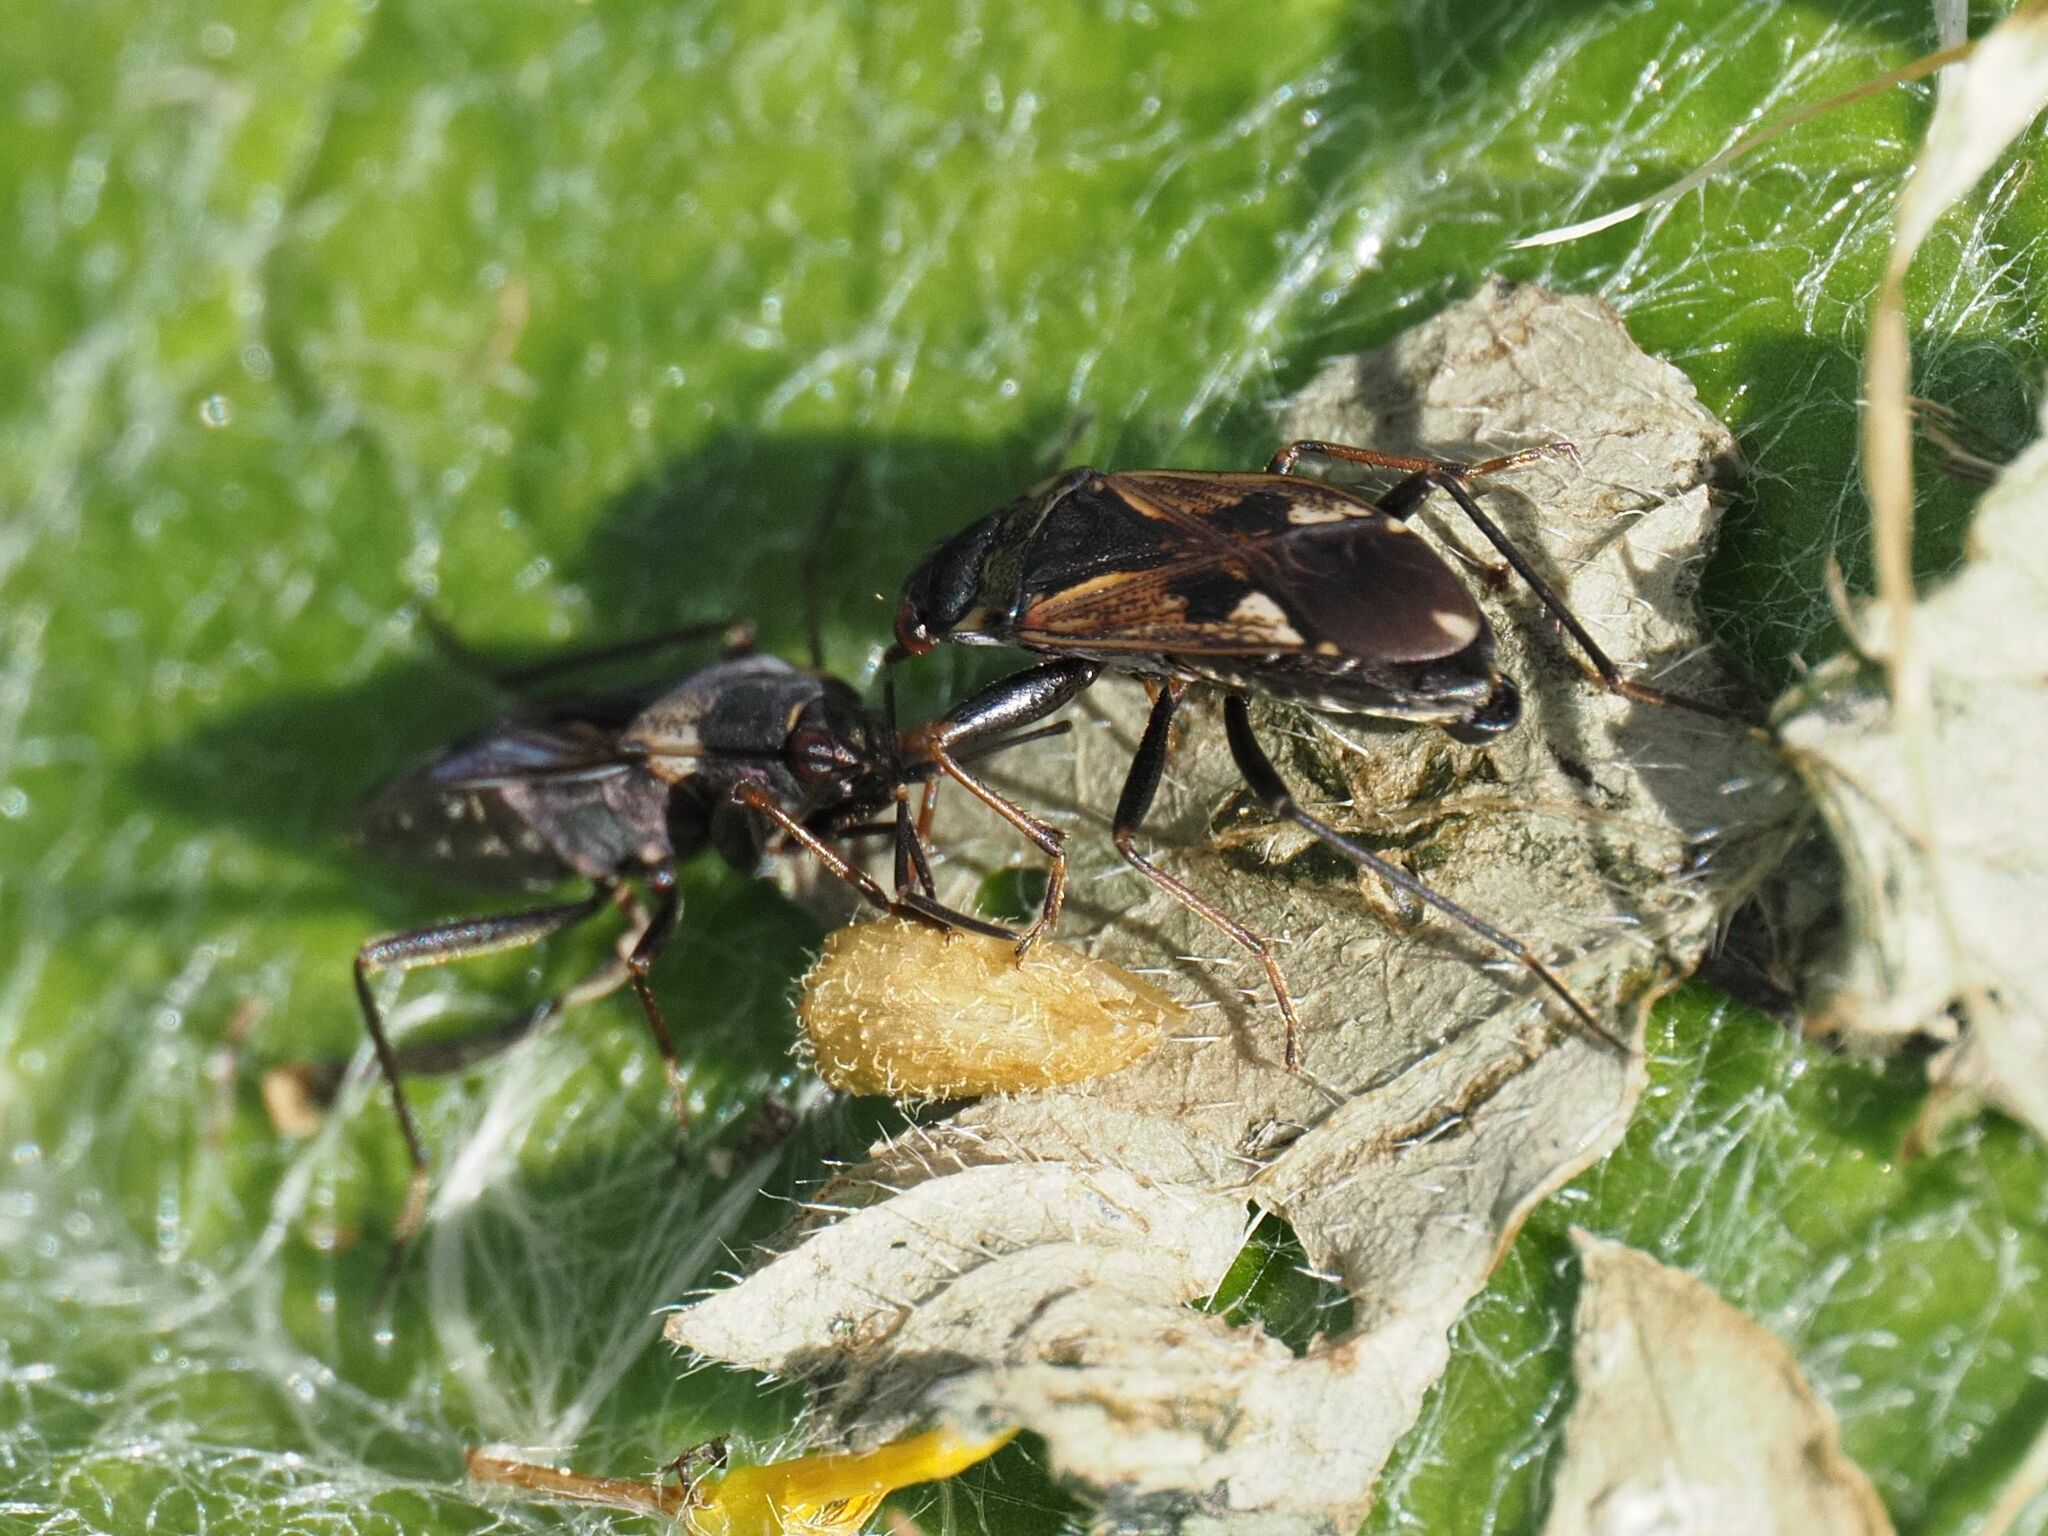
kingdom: Animalia
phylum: Arthropoda
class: Insecta
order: Hemiptera
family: Rhyparochromidae
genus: Rhyparochromus
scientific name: Rhyparochromus vulgaris
